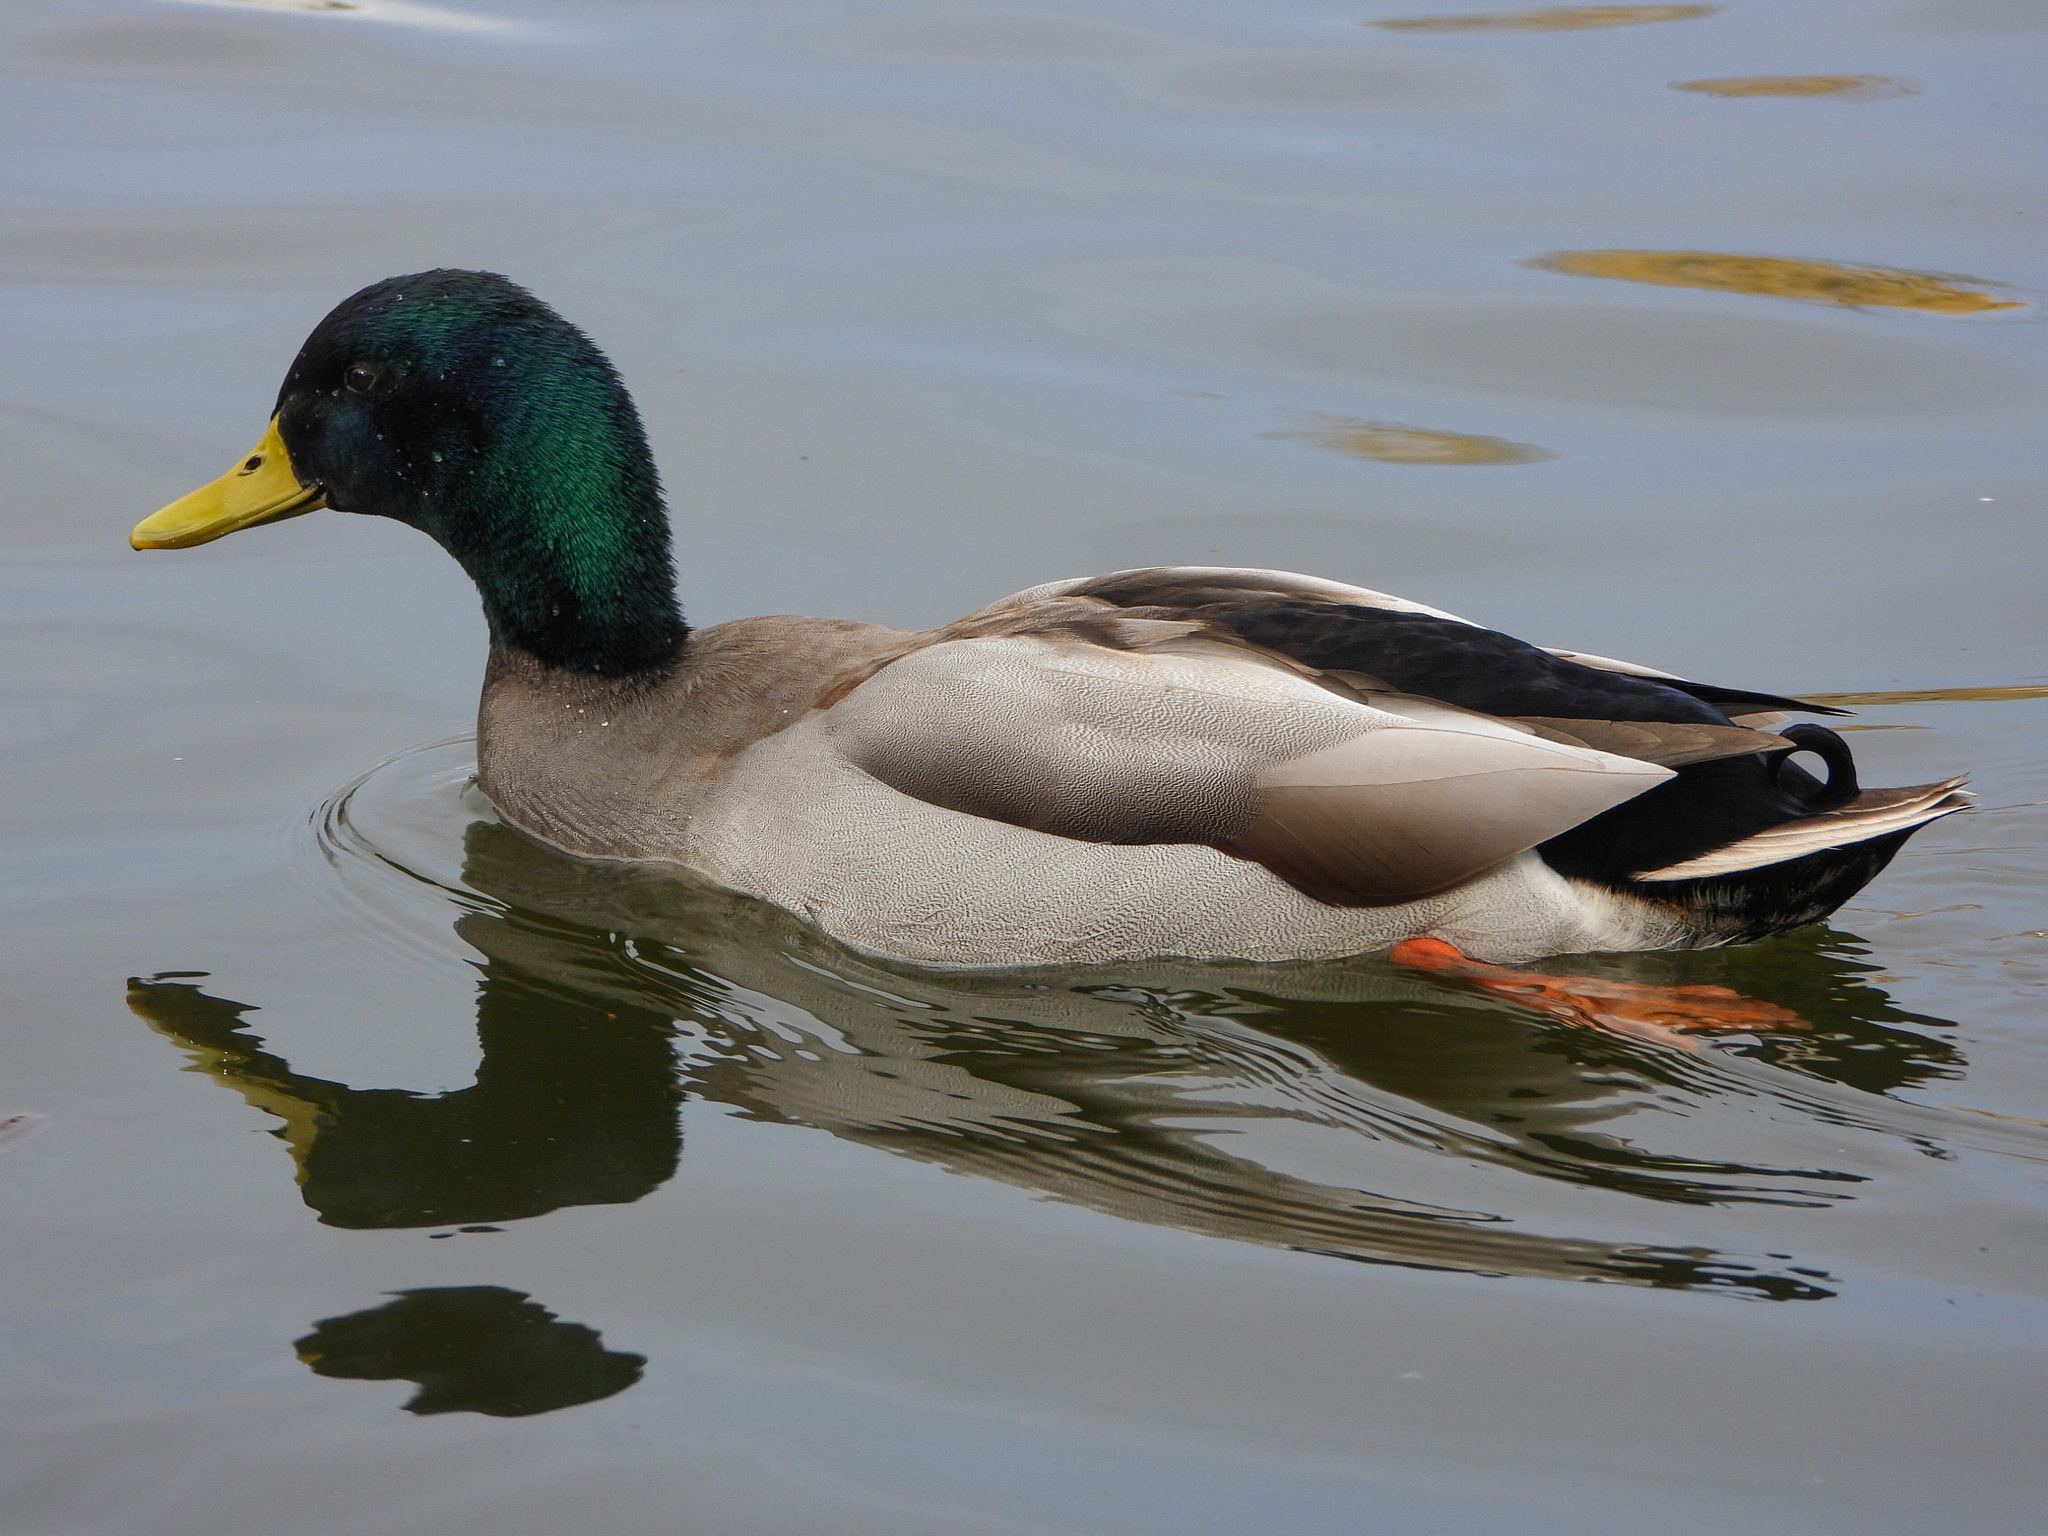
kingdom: Animalia
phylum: Chordata
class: Aves
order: Anseriformes
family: Anatidae
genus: Anas
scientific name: Anas platyrhynchos
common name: Mallard
